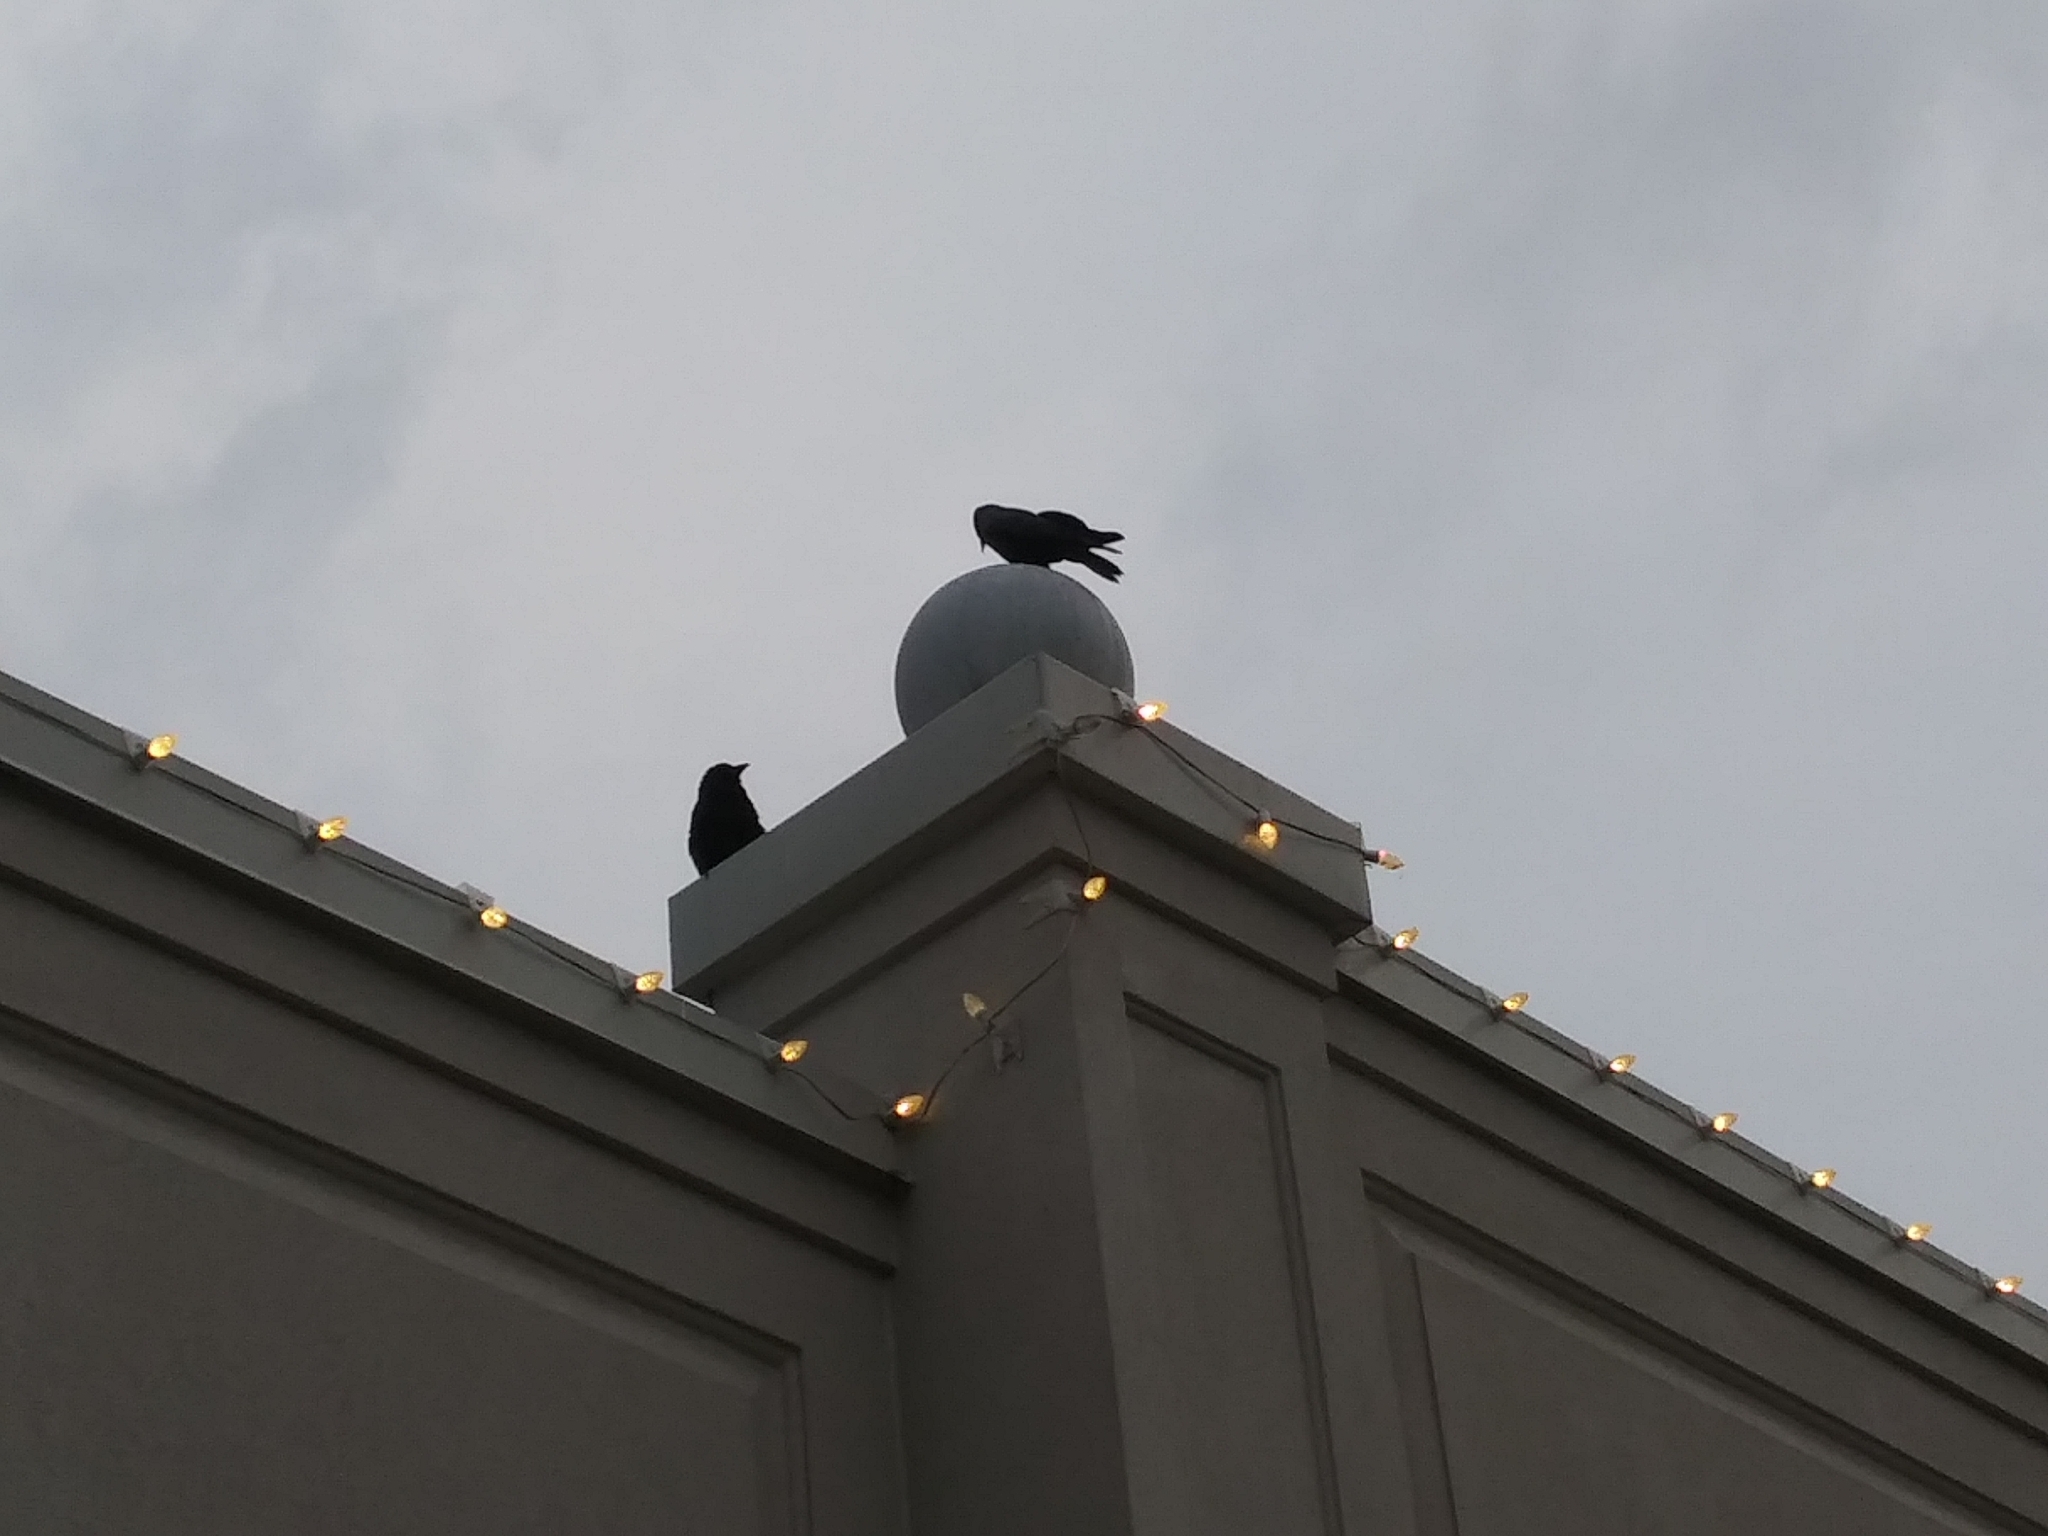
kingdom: Animalia
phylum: Chordata
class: Aves
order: Passeriformes
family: Corvidae
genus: Corvus
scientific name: Corvus ossifragus
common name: Fish crow
